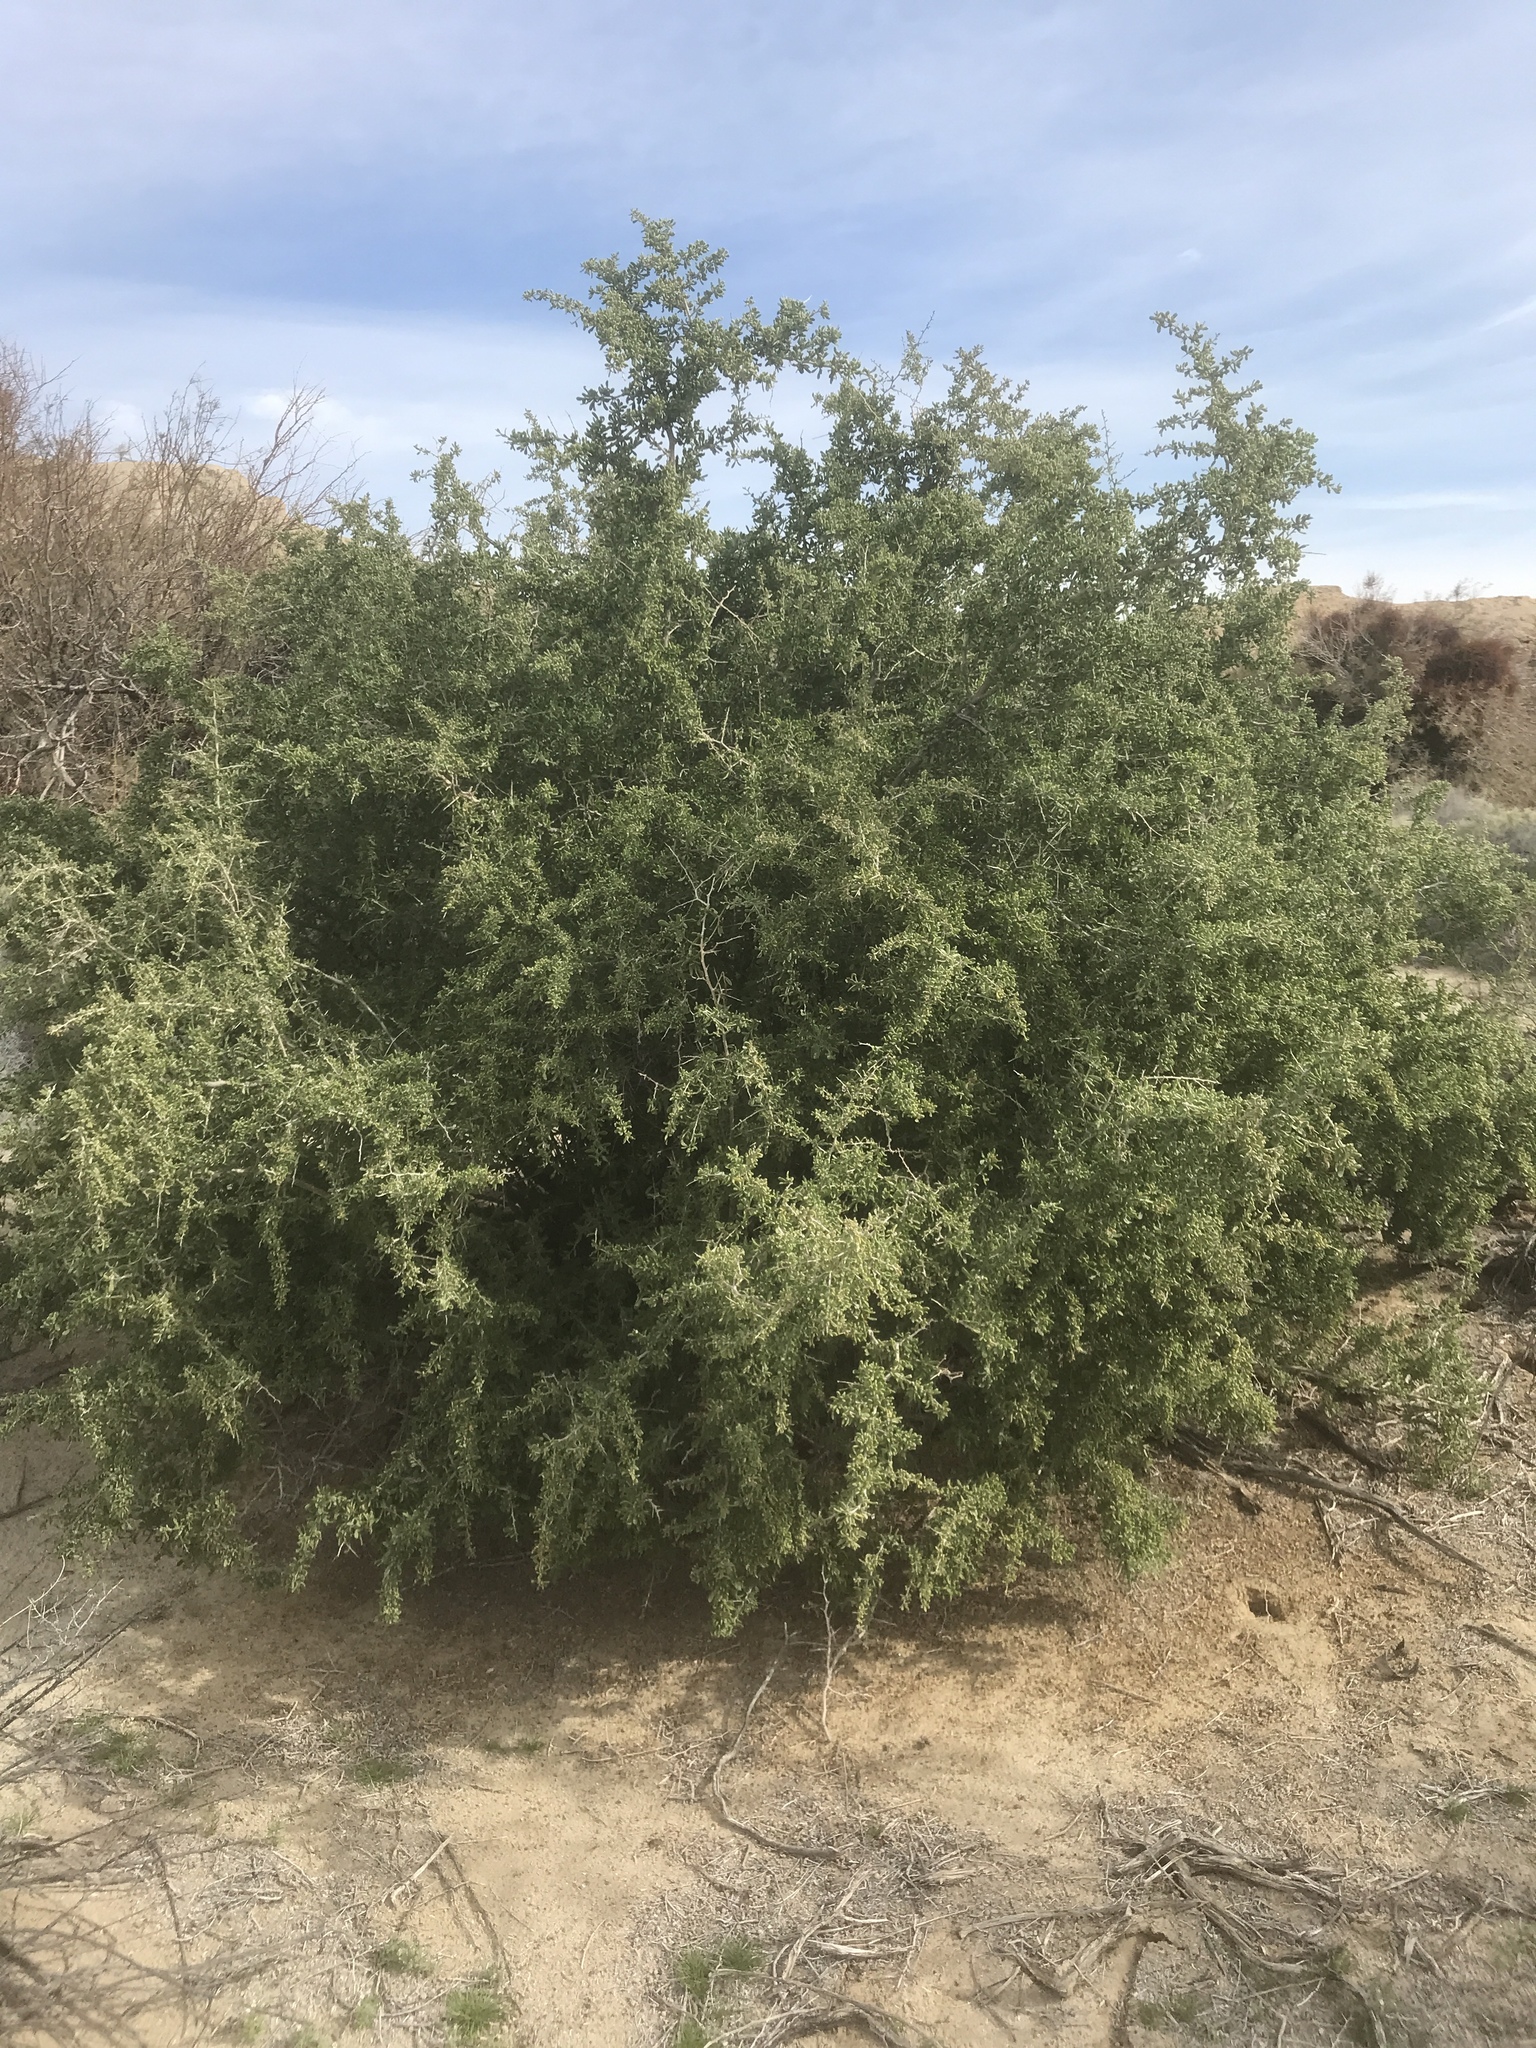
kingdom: Plantae
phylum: Tracheophyta
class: Magnoliopsida
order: Solanales
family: Solanaceae
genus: Lycium
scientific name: Lycium fremontii
